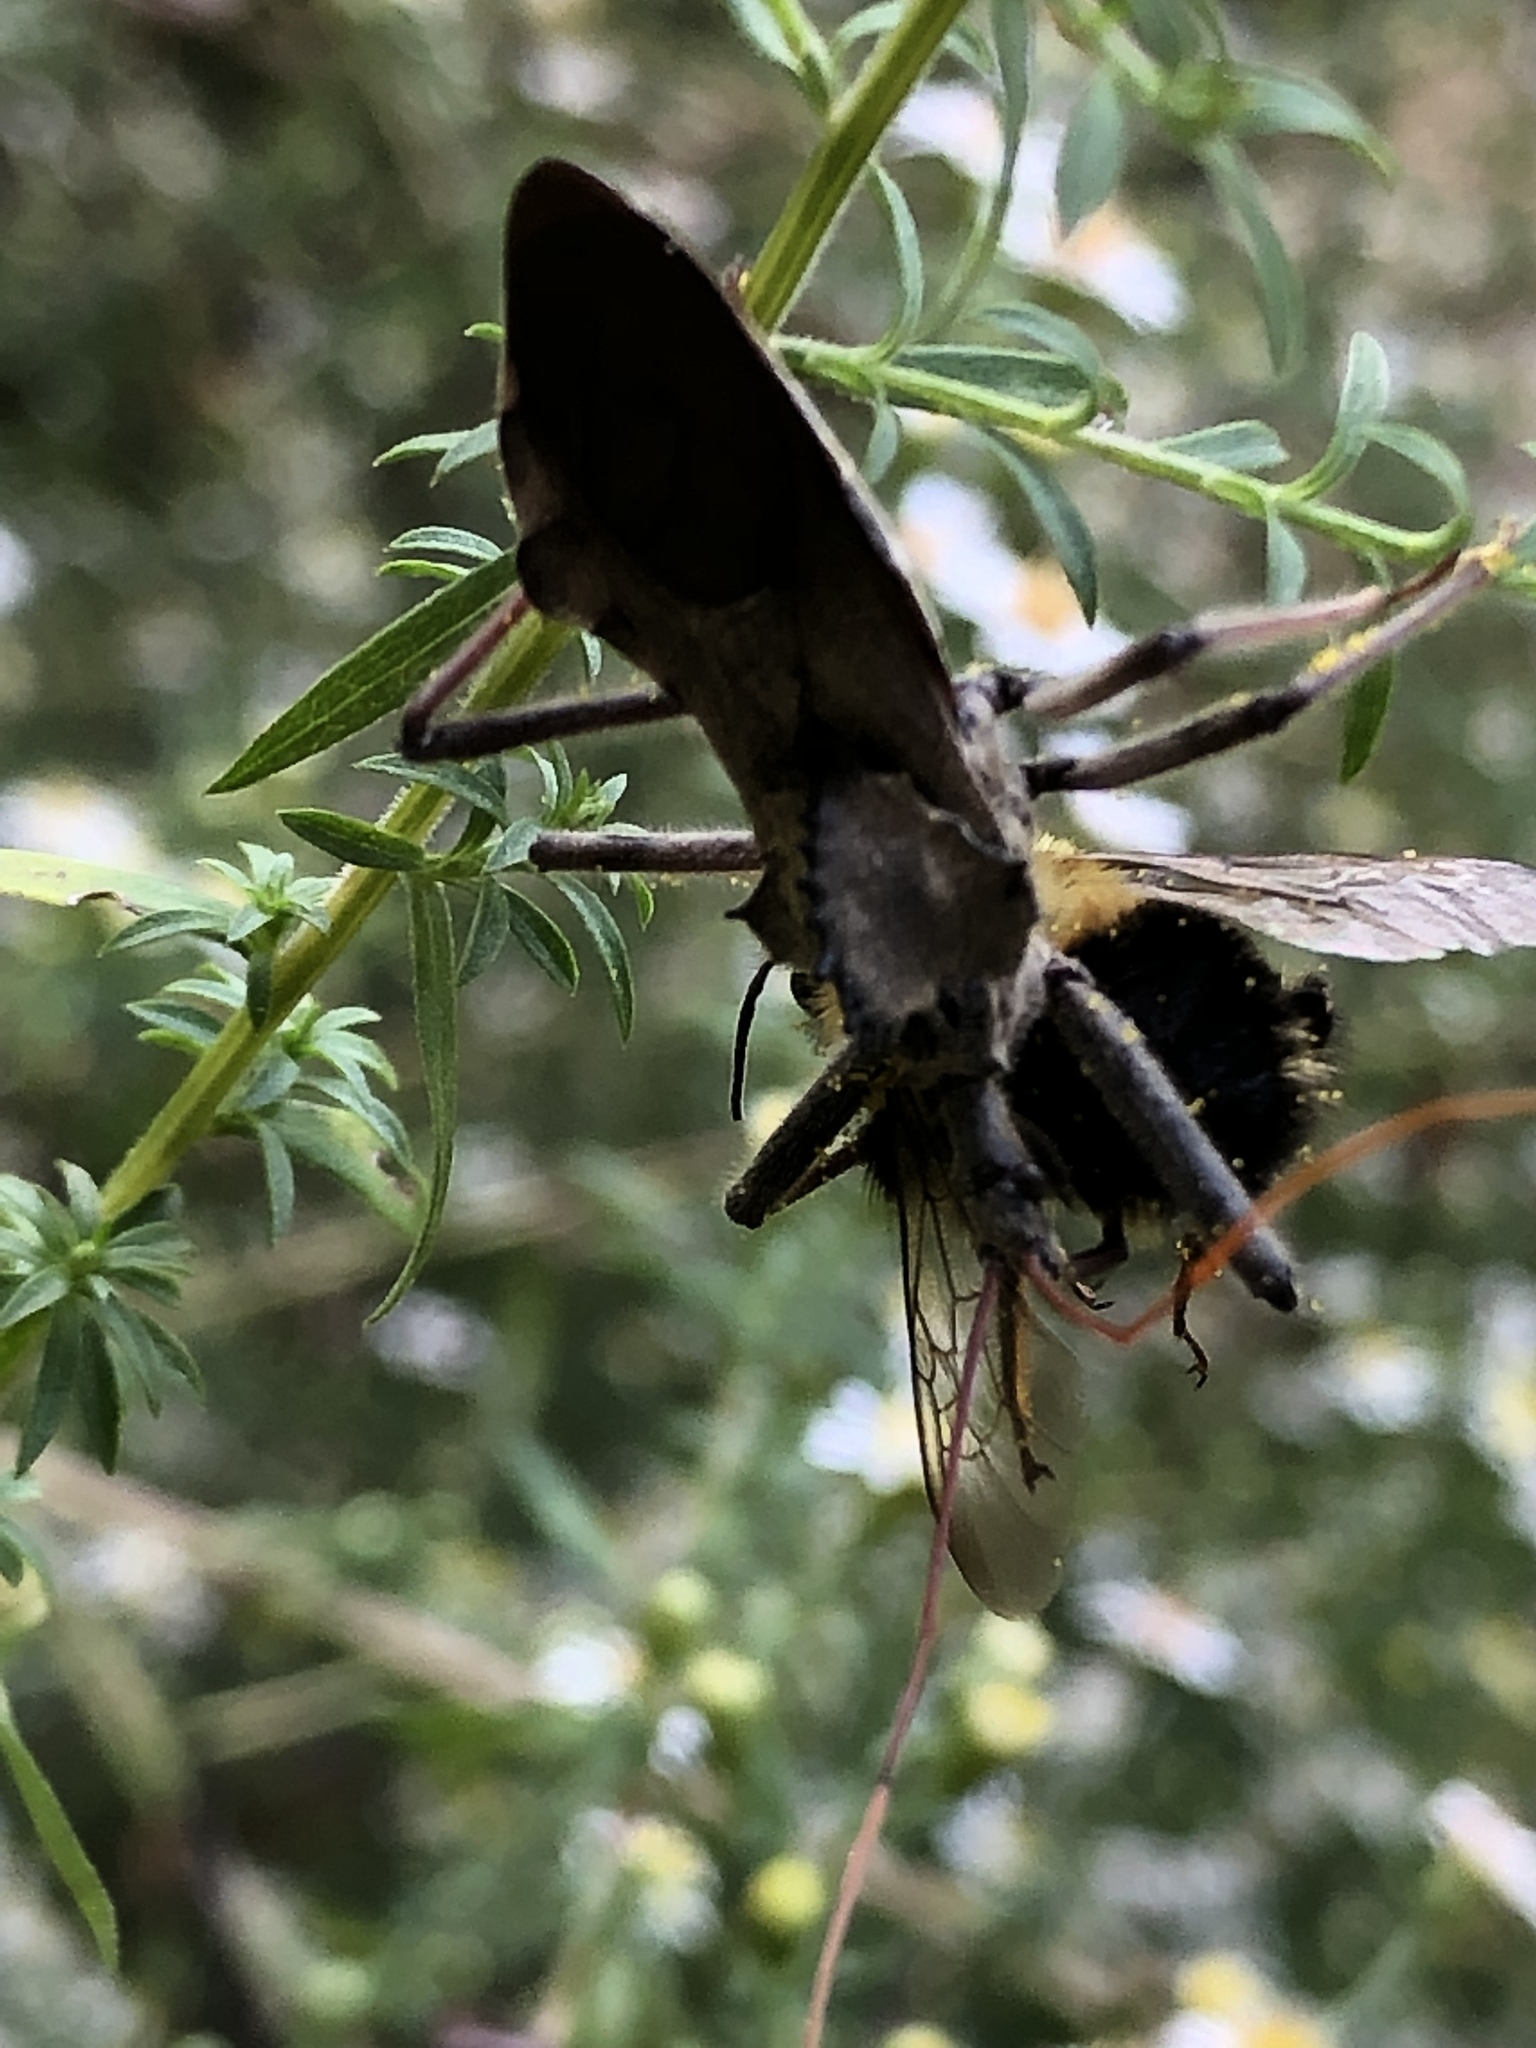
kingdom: Animalia
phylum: Arthropoda
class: Insecta
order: Hemiptera
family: Reduviidae
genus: Arilus
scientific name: Arilus cristatus
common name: North american wheel bug
